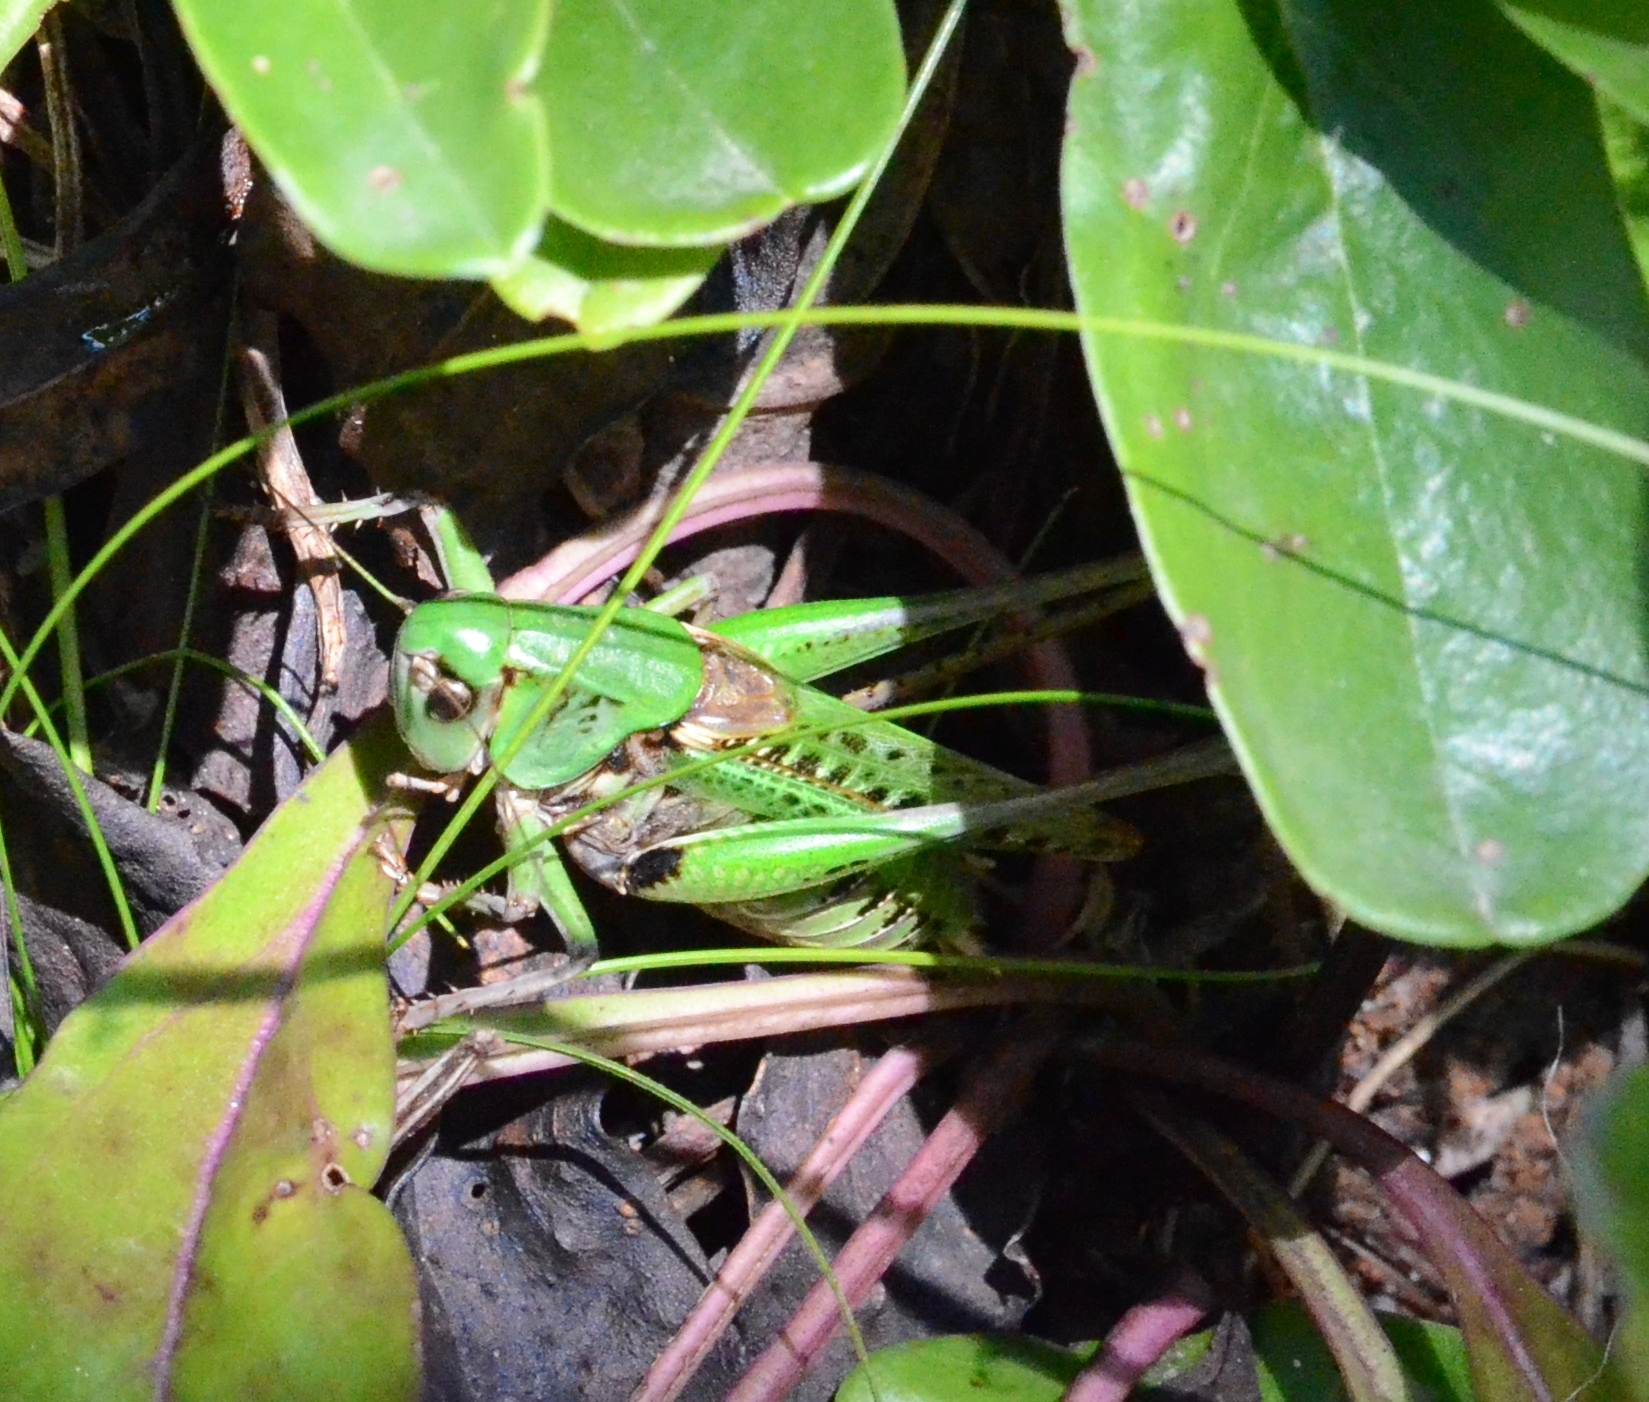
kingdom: Animalia
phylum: Arthropoda
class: Insecta
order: Orthoptera
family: Tettigoniidae
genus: Decticus
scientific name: Decticus verrucivorus
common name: Wart-biter
